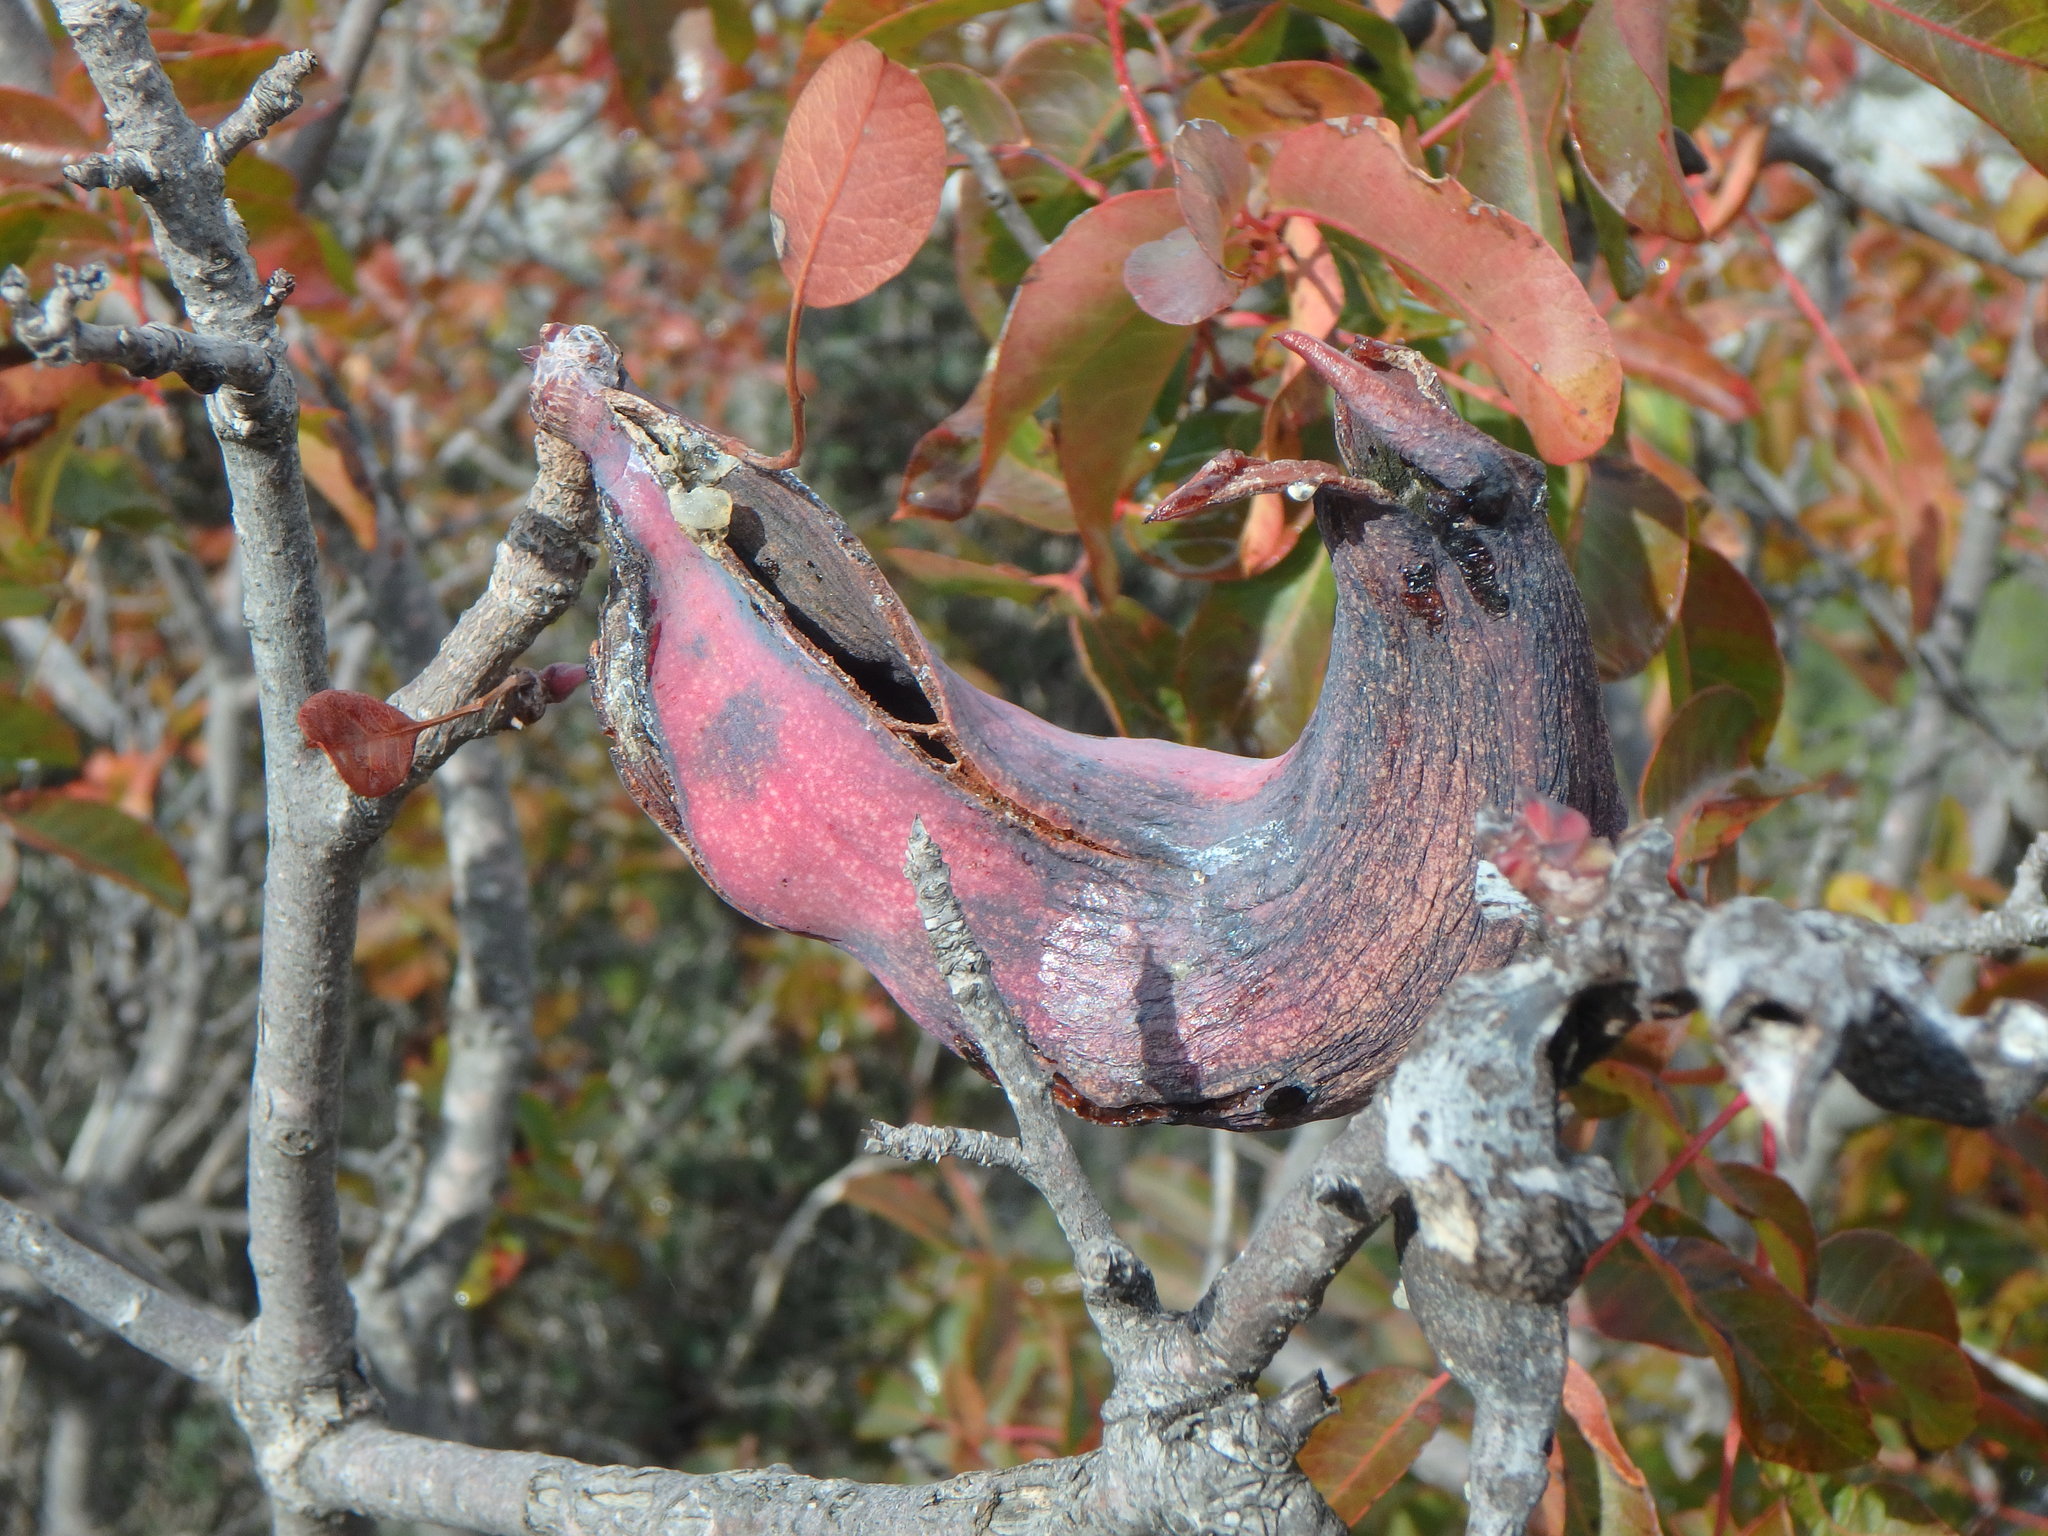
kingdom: Plantae
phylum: Tracheophyta
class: Magnoliopsida
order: Sapindales
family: Anacardiaceae
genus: Pistacia
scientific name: Pistacia terebinthus
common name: Terebinth
